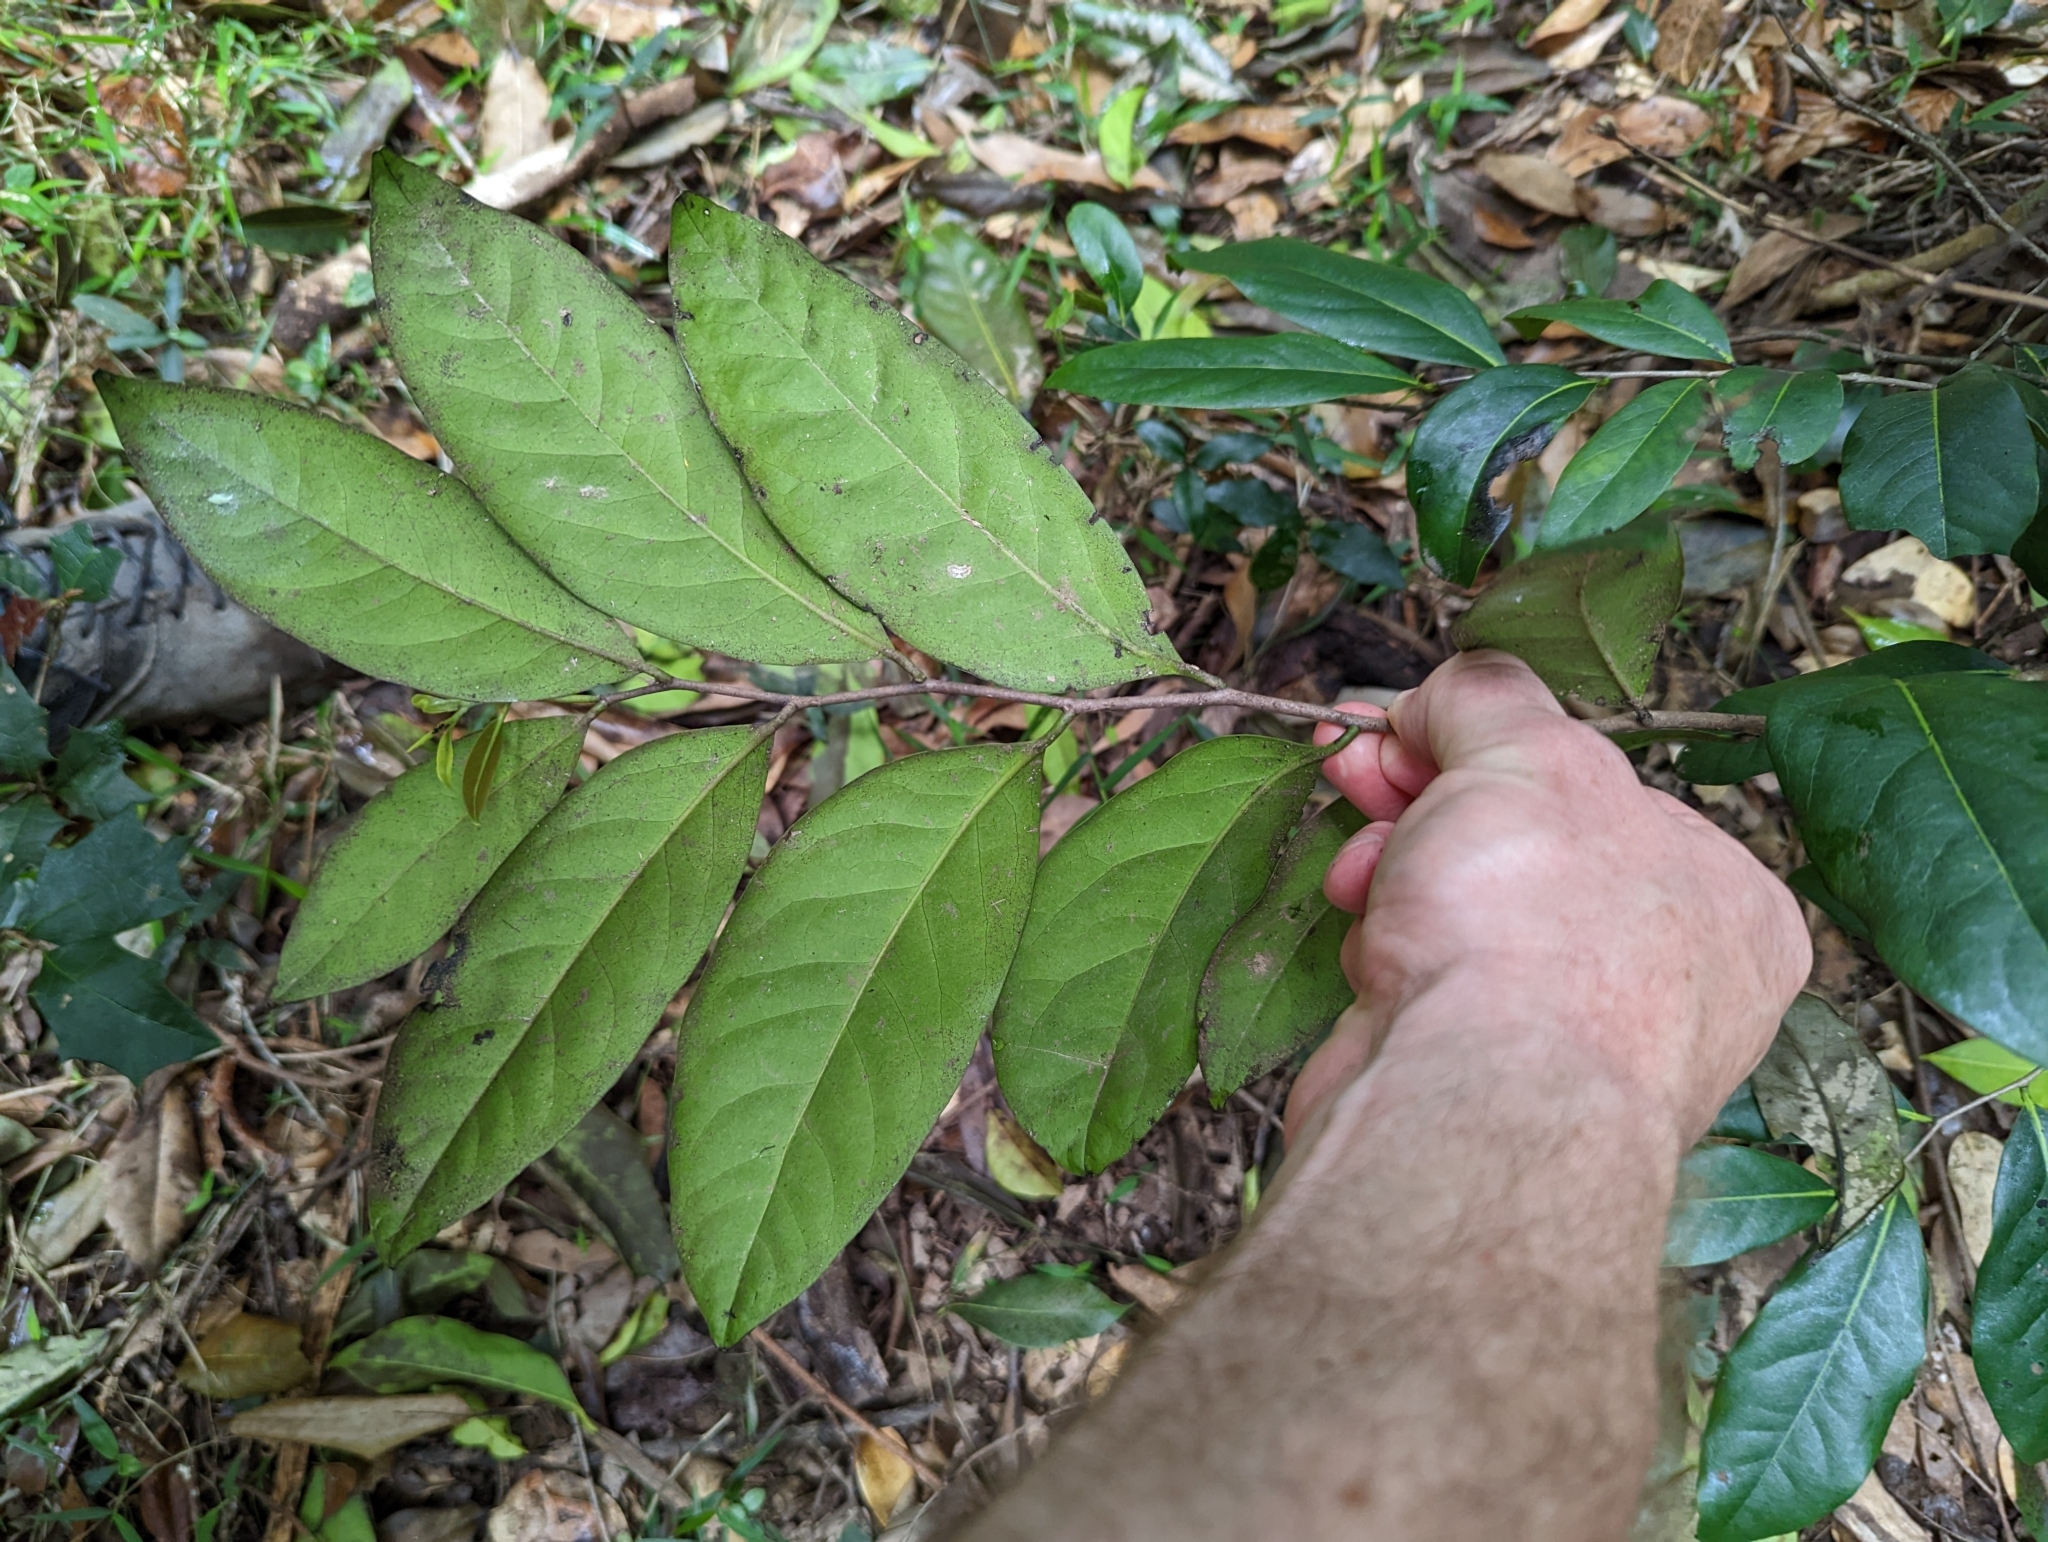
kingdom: Plantae
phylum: Tracheophyta
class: Magnoliopsida
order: Ericales
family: Ebenaceae
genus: Diospyros
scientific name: Diospyros fasciculosa
